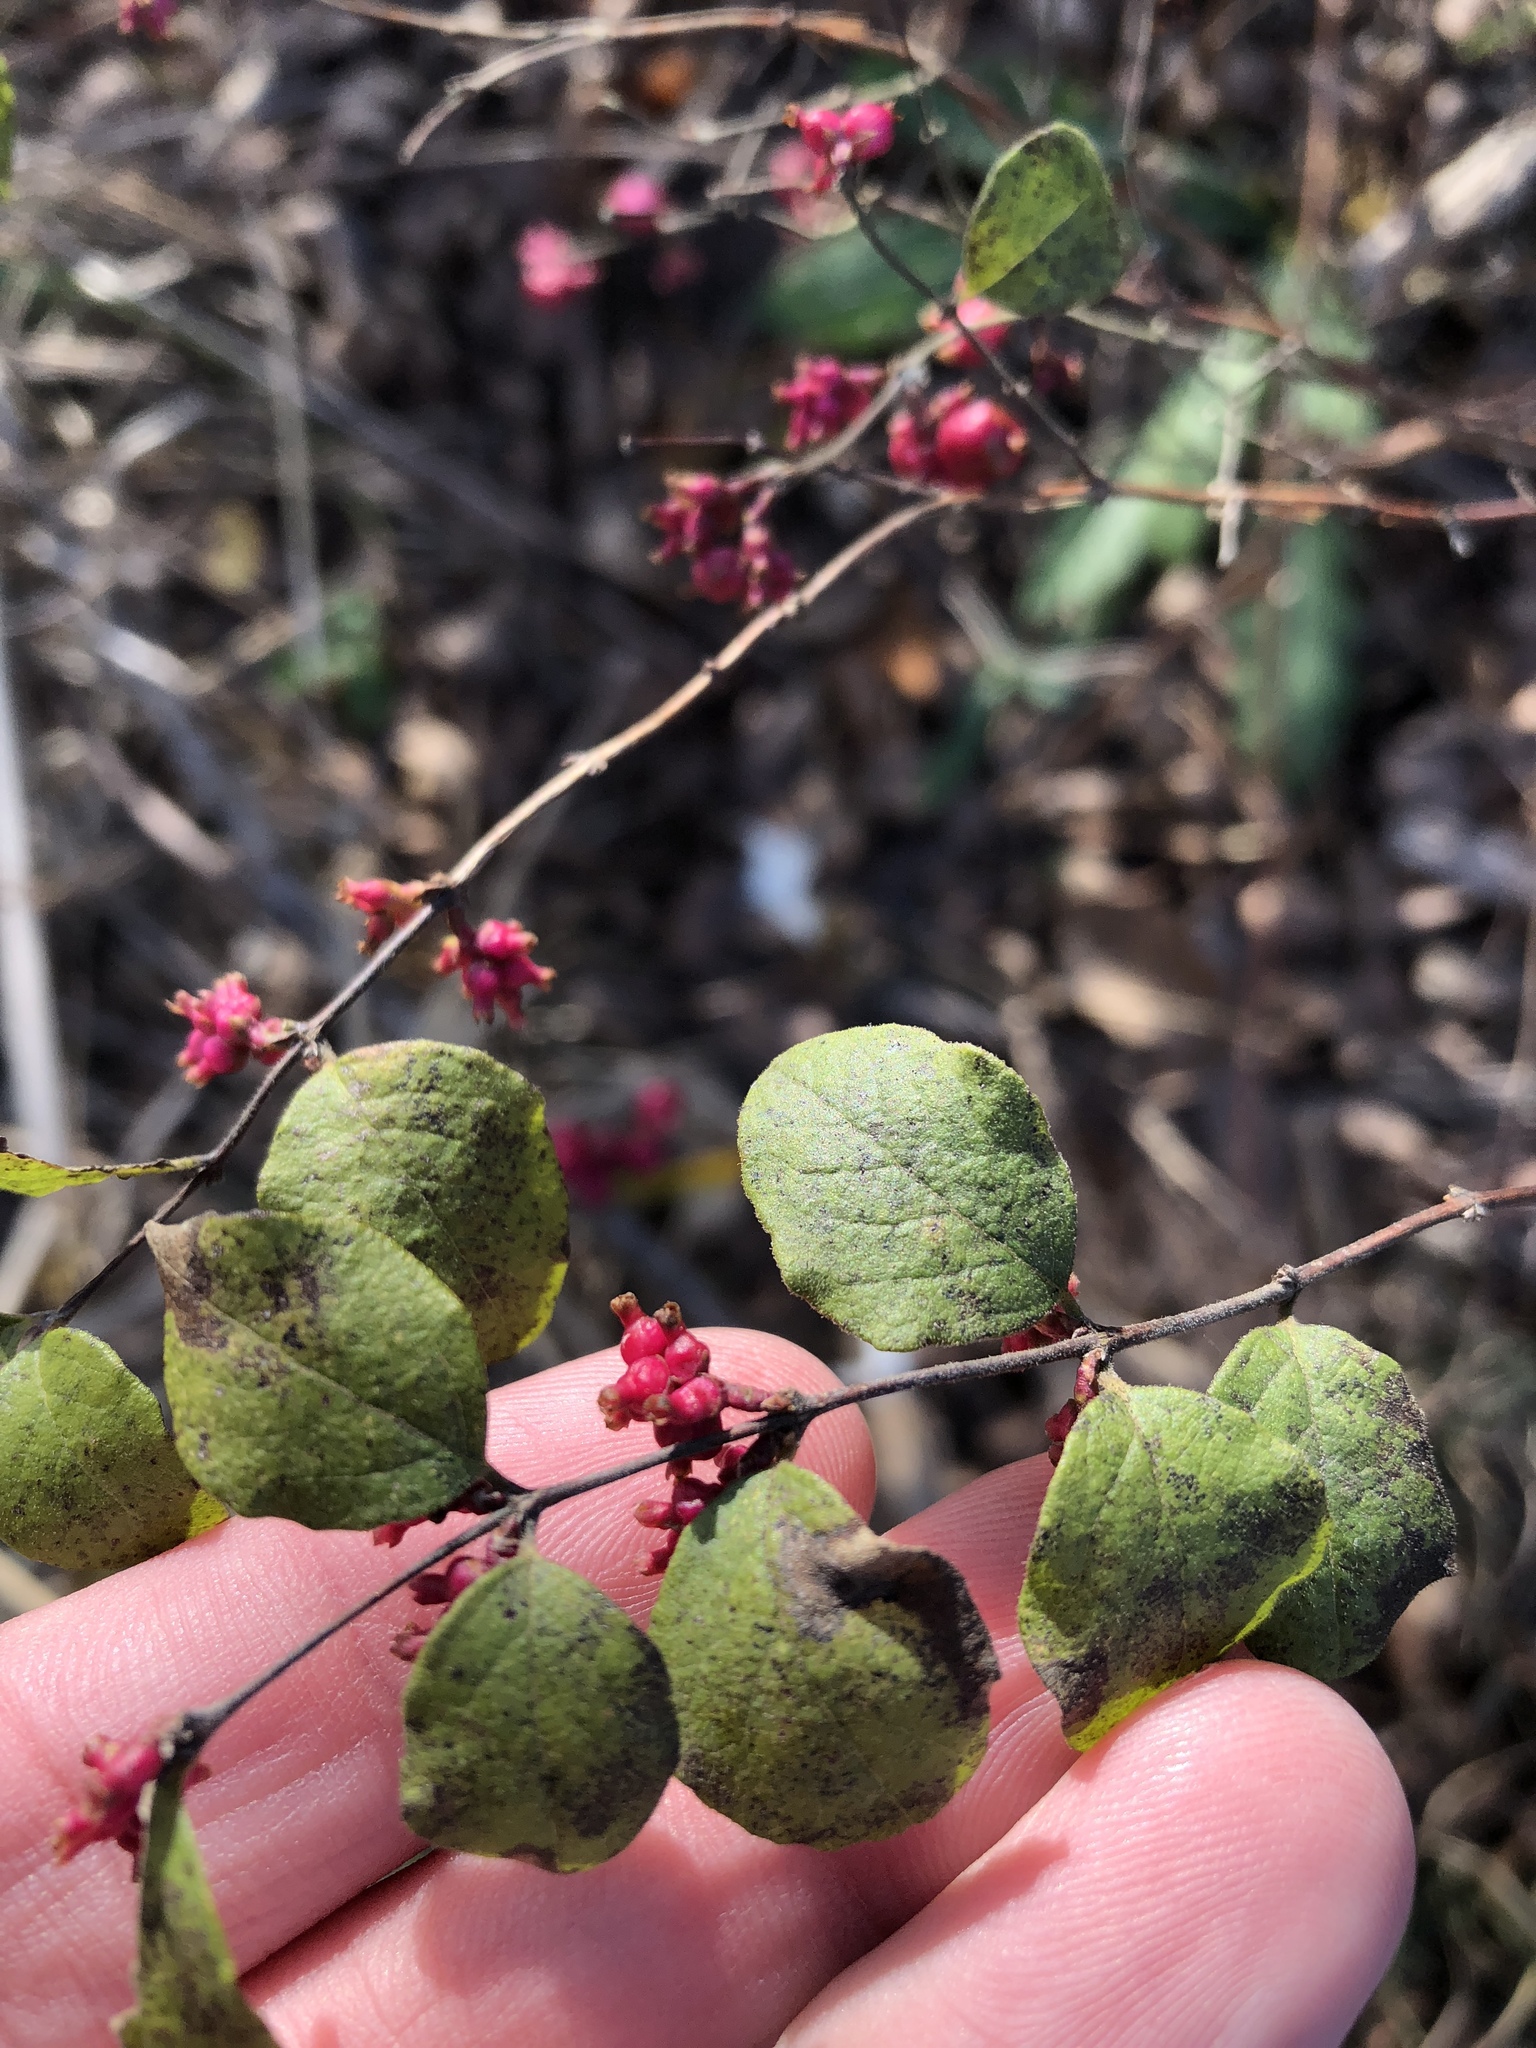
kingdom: Plantae
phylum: Tracheophyta
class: Magnoliopsida
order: Dipsacales
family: Caprifoliaceae
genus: Symphoricarpos
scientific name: Symphoricarpos orbiculatus
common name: Coralberry
